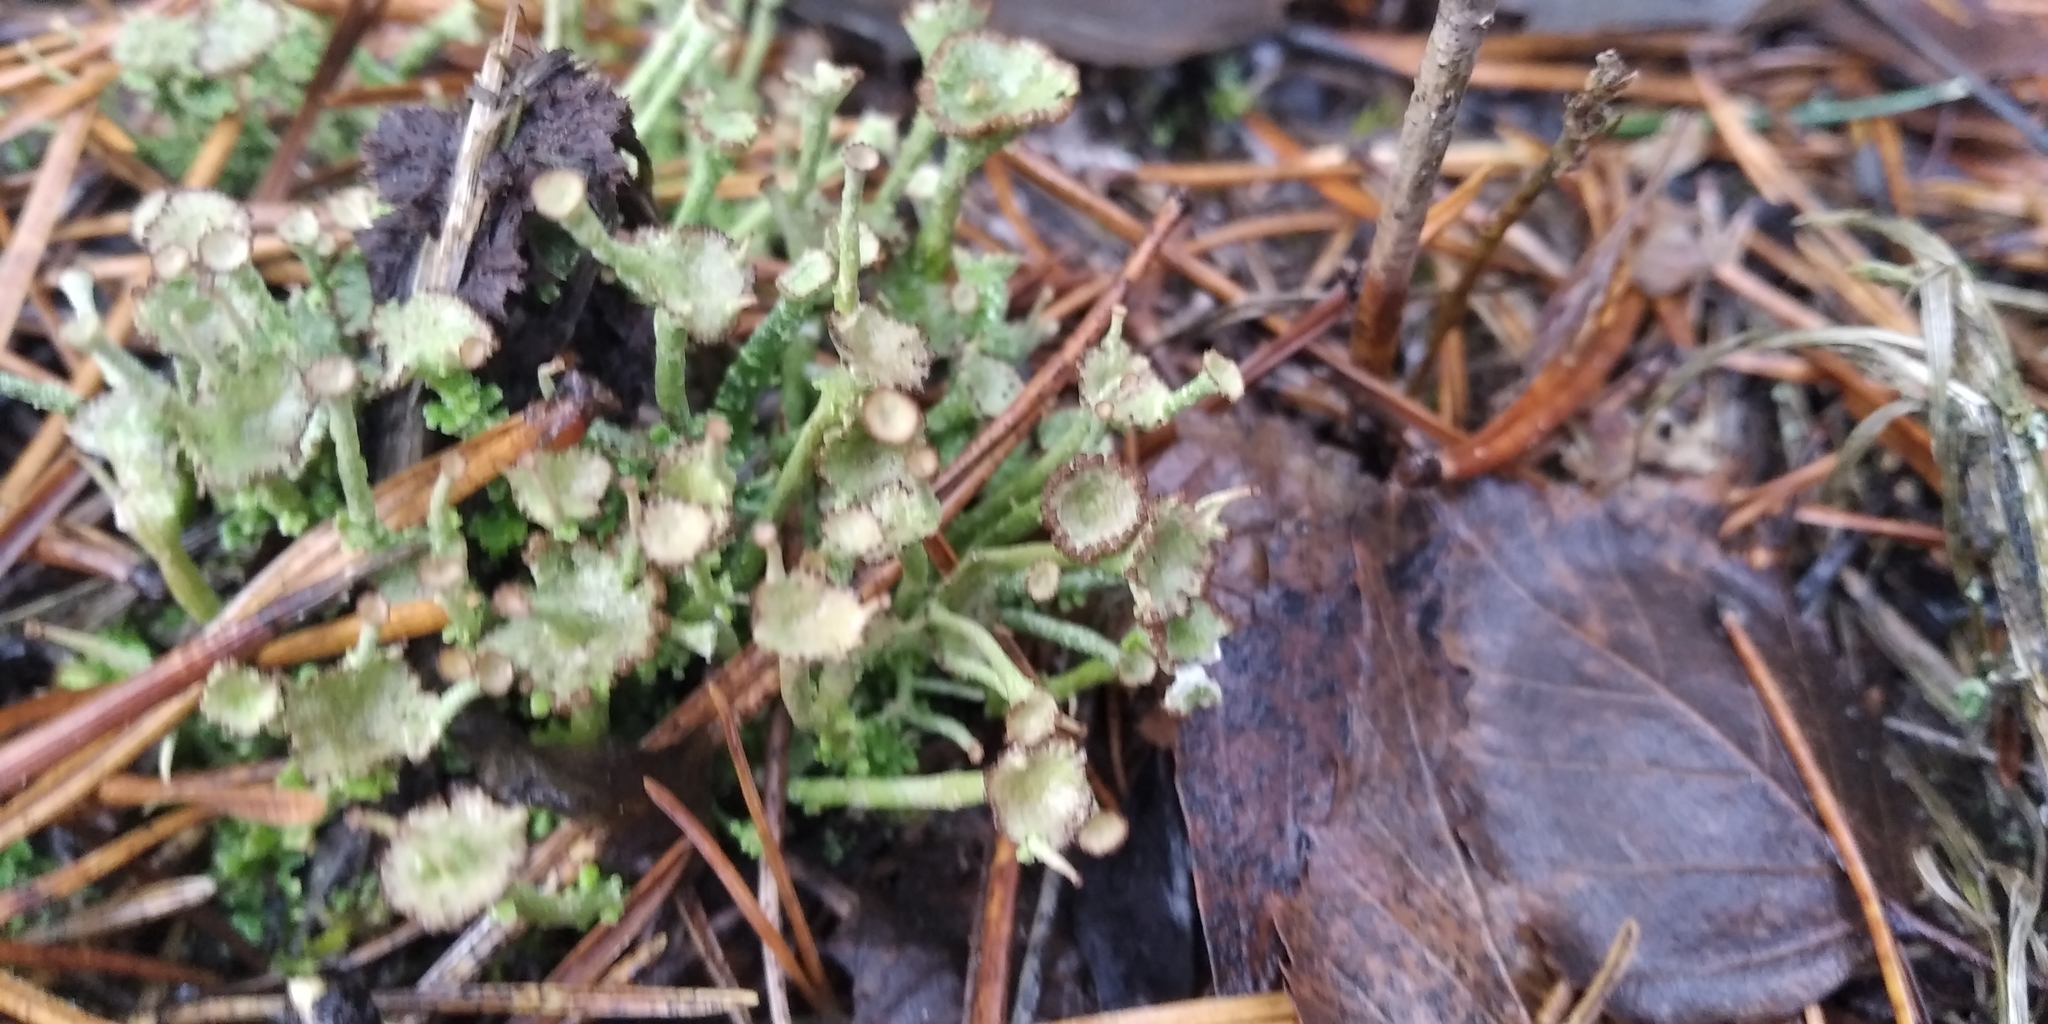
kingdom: Fungi
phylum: Ascomycota
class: Lecanoromycetes
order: Lecanorales
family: Cladoniaceae
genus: Cladonia
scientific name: Cladonia gracilis
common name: Smooth clad lichen
